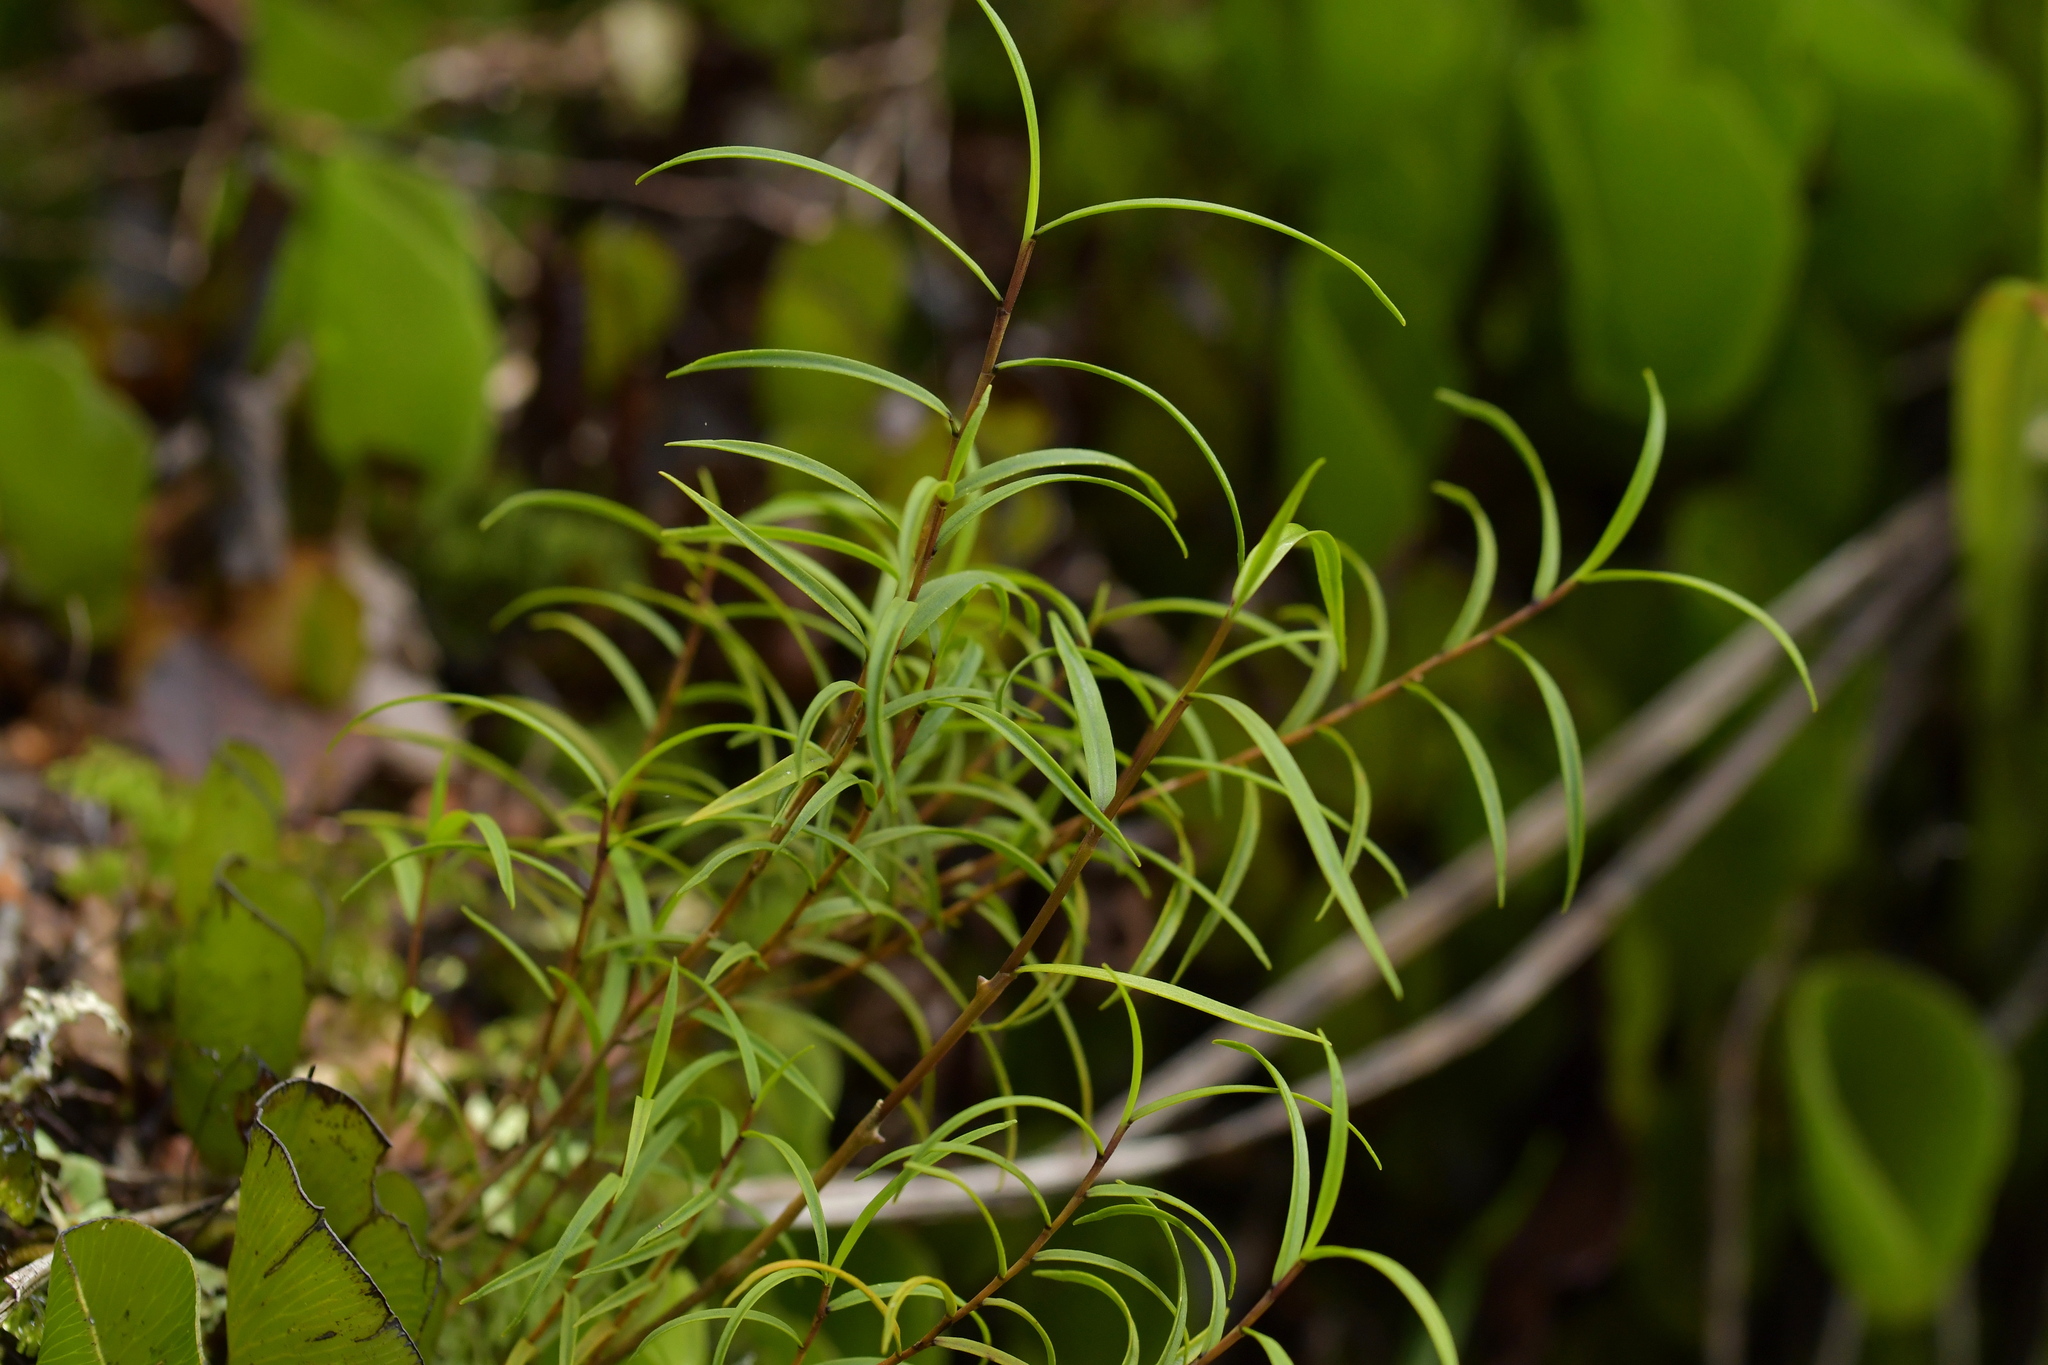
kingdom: Plantae
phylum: Tracheophyta
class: Liliopsida
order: Asparagales
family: Orchidaceae
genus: Dendrobium
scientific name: Dendrobium cunninghamii
